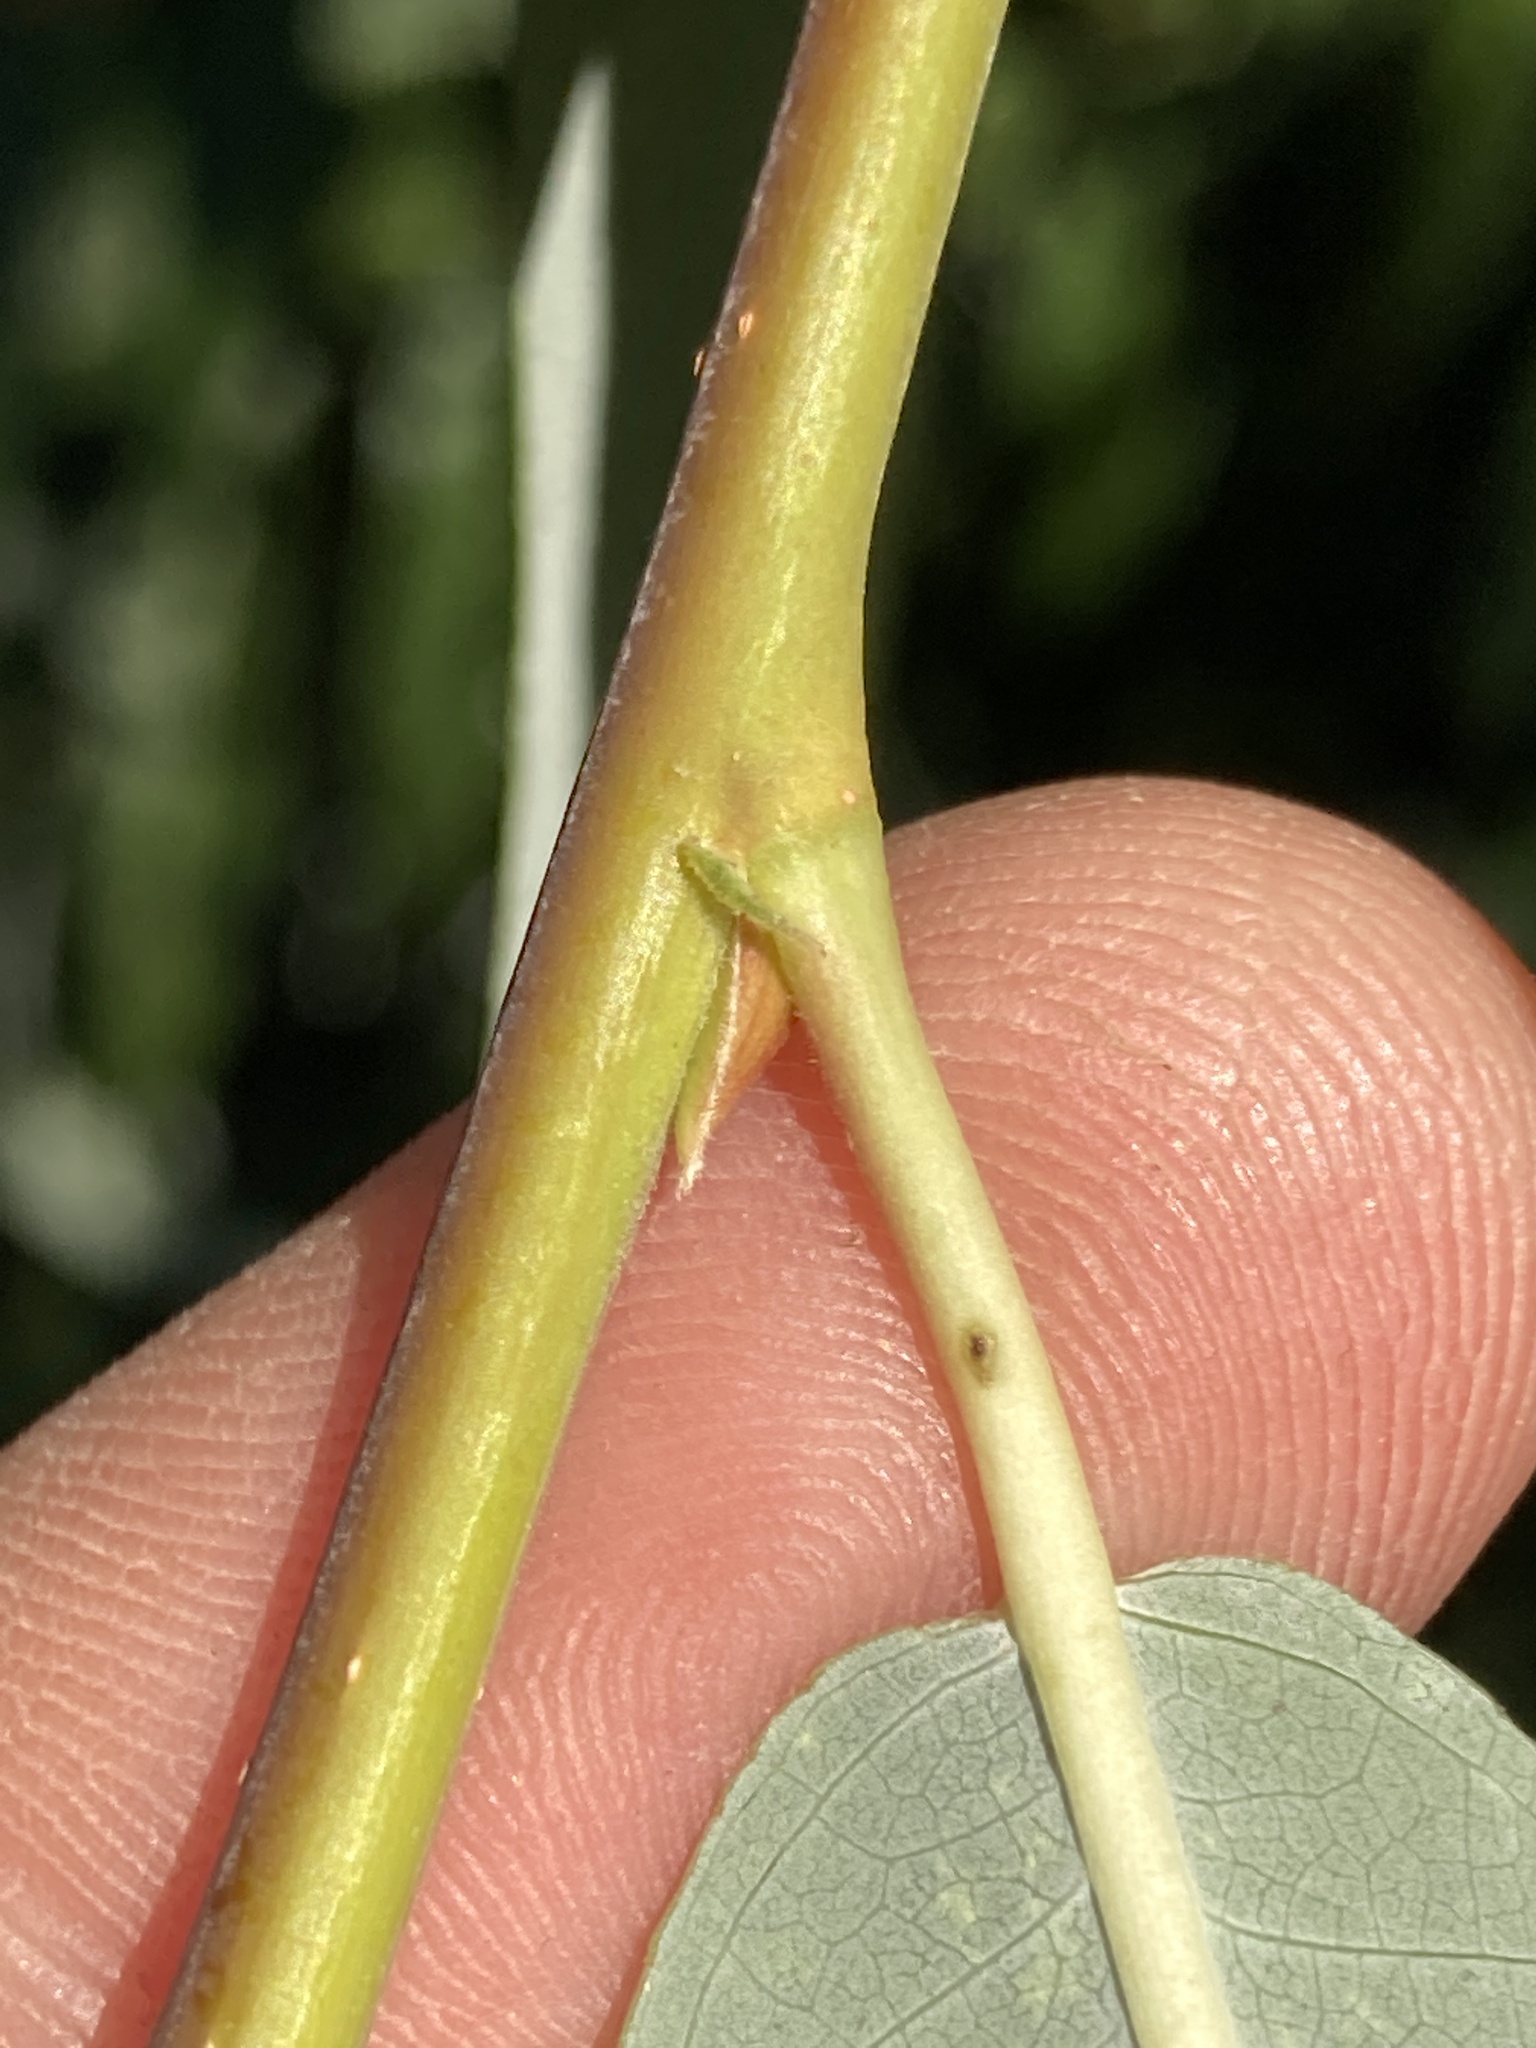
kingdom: Plantae
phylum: Tracheophyta
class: Magnoliopsida
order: Malpighiales
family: Salicaceae
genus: Salix
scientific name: Salix laevigata
